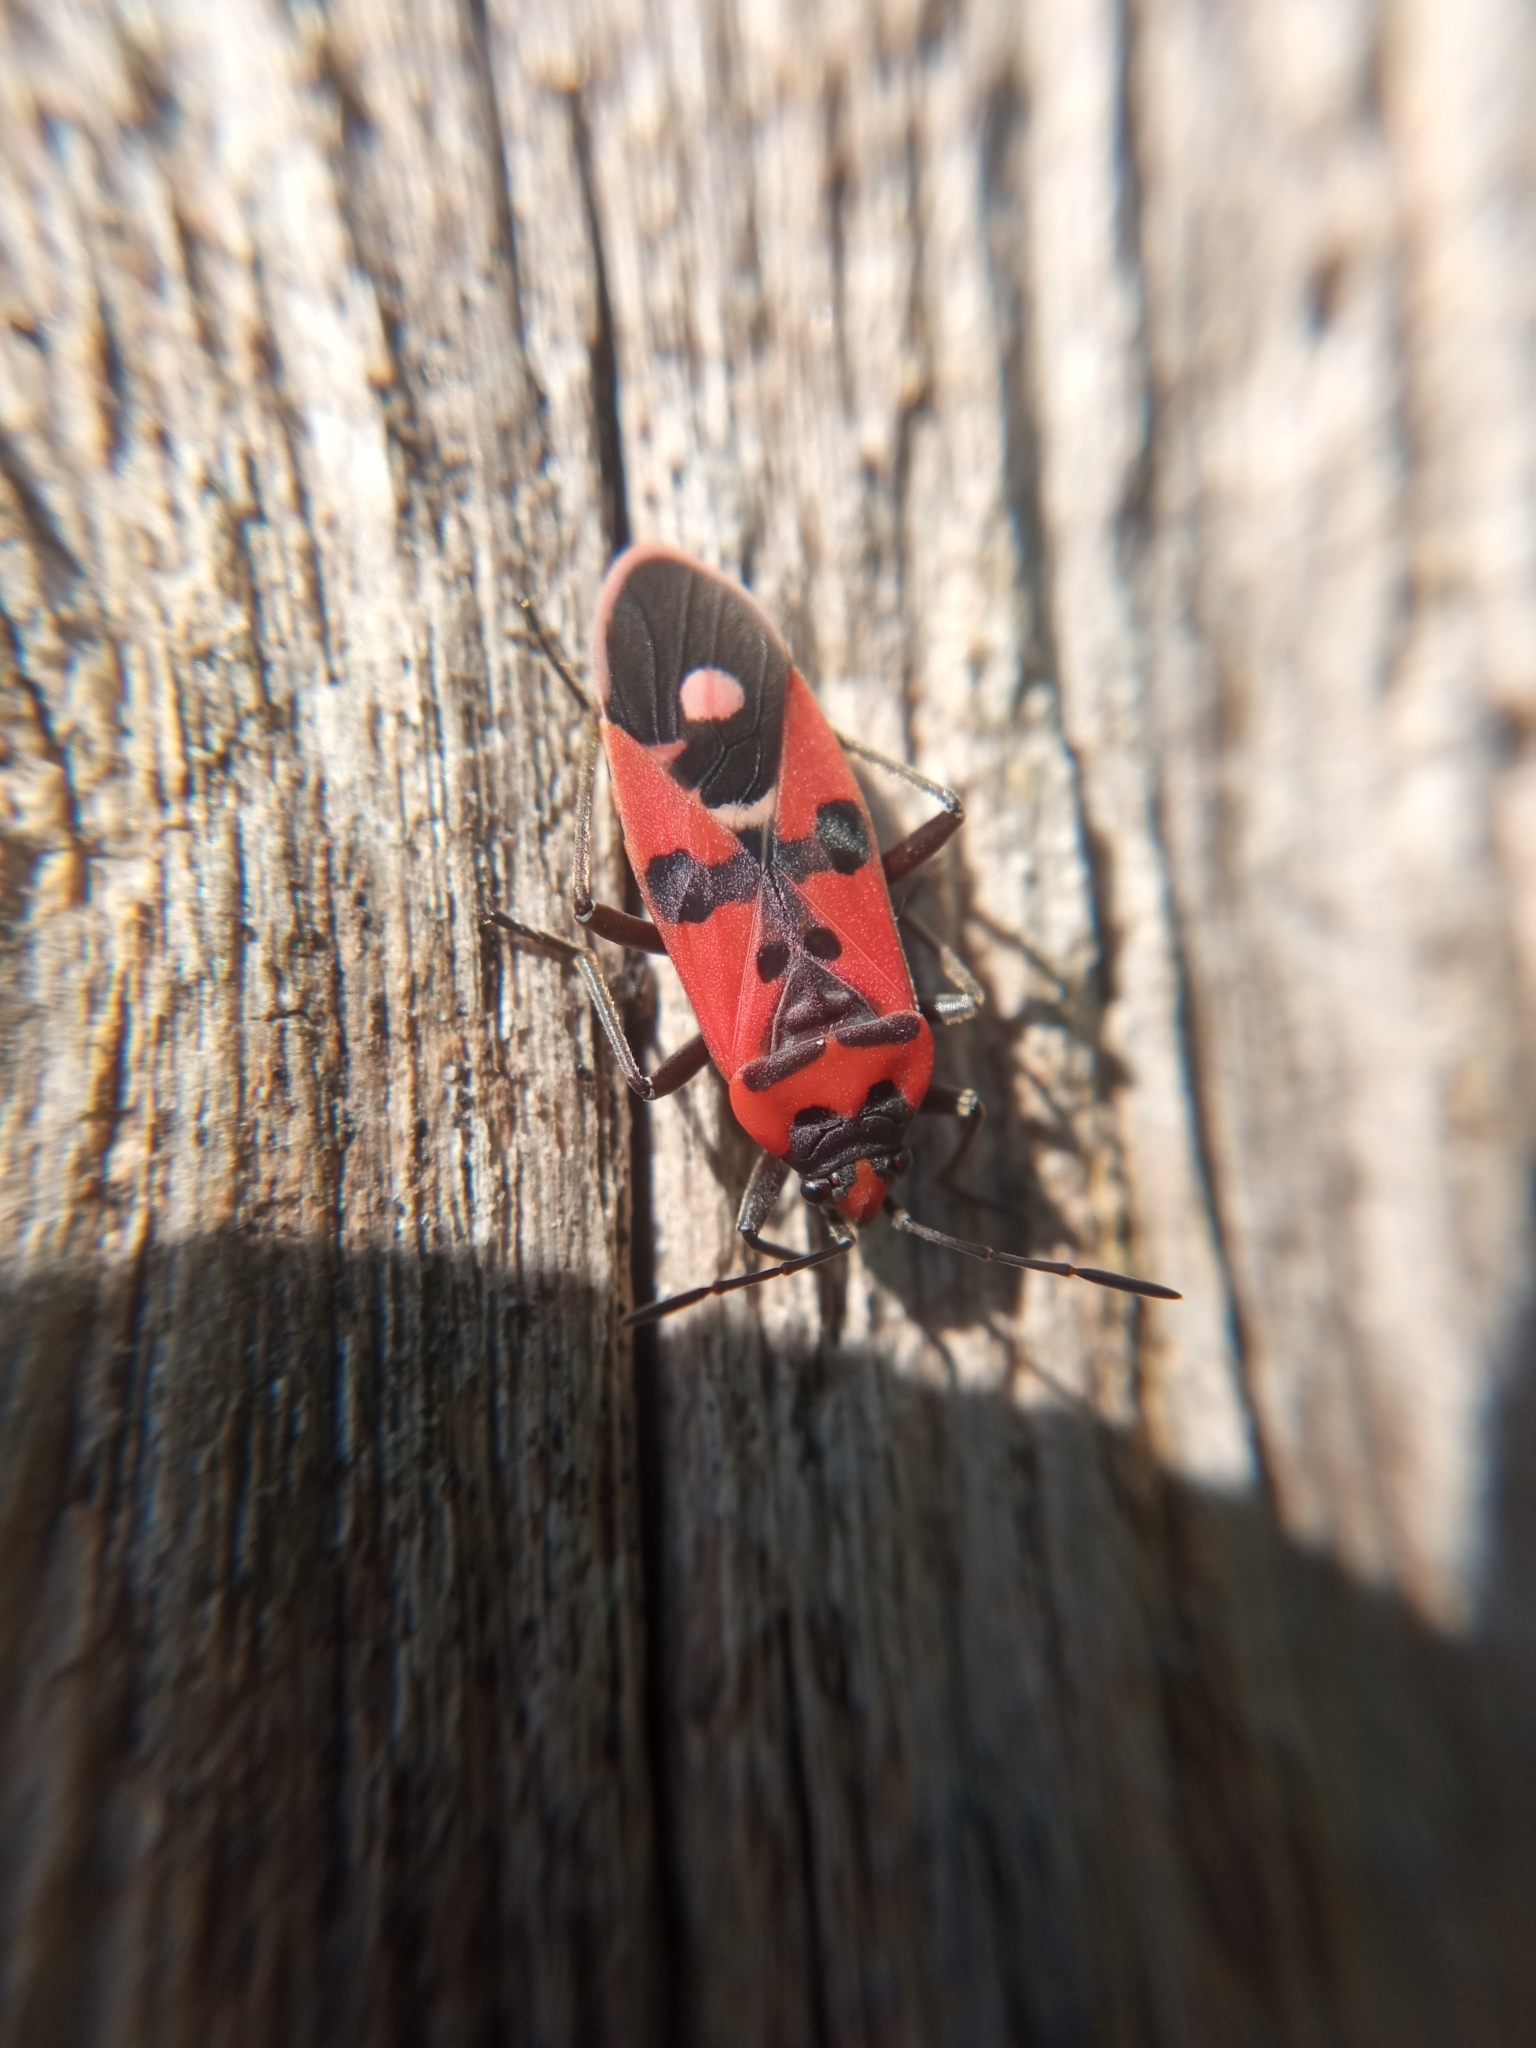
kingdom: Animalia
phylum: Arthropoda
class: Insecta
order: Hemiptera
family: Lygaeidae
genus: Lygaeus
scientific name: Lygaeus equestris
